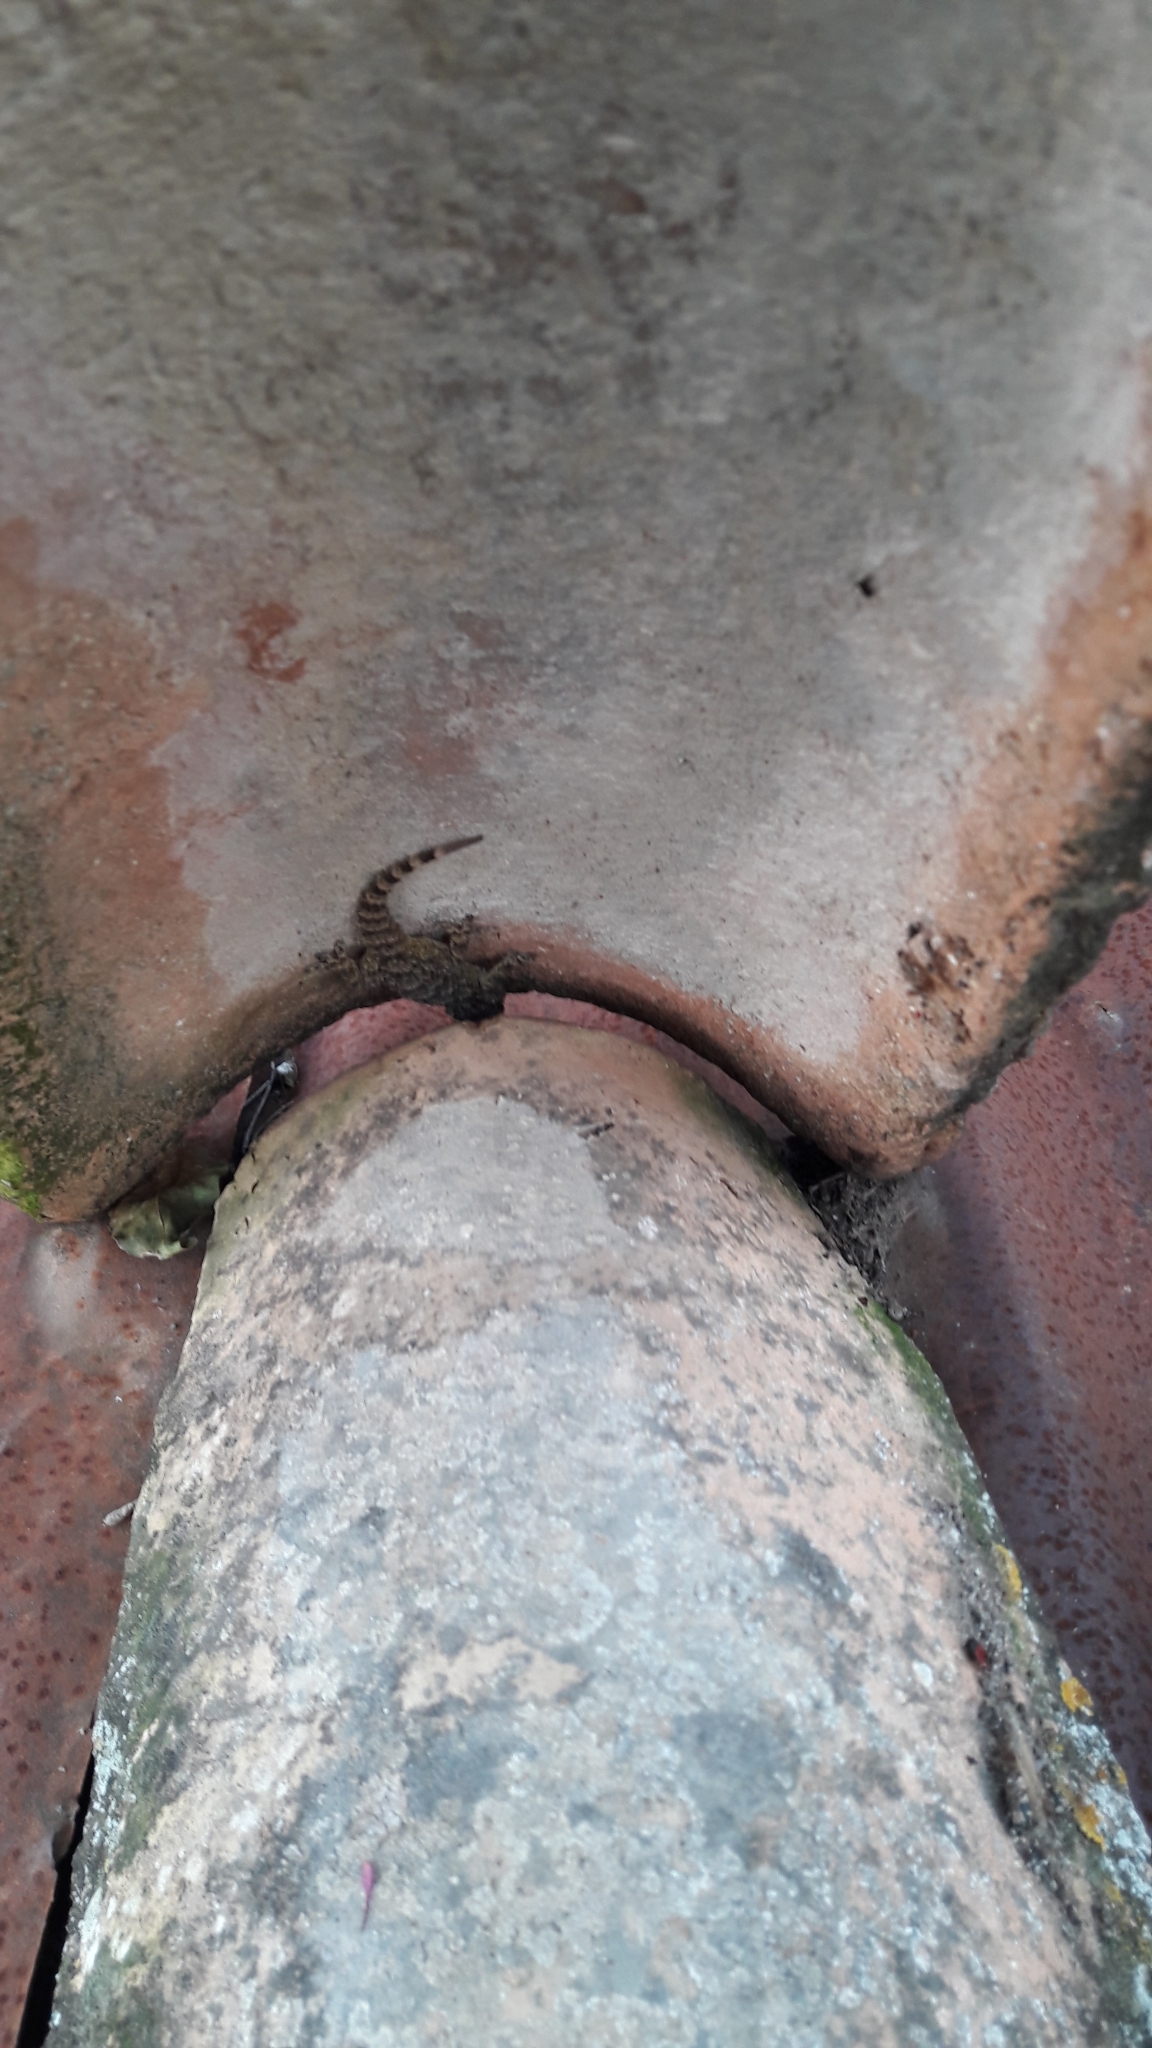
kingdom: Animalia
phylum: Chordata
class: Squamata
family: Phyllodactylidae
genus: Tarentola
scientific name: Tarentola mauritanica
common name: Moorish gecko
